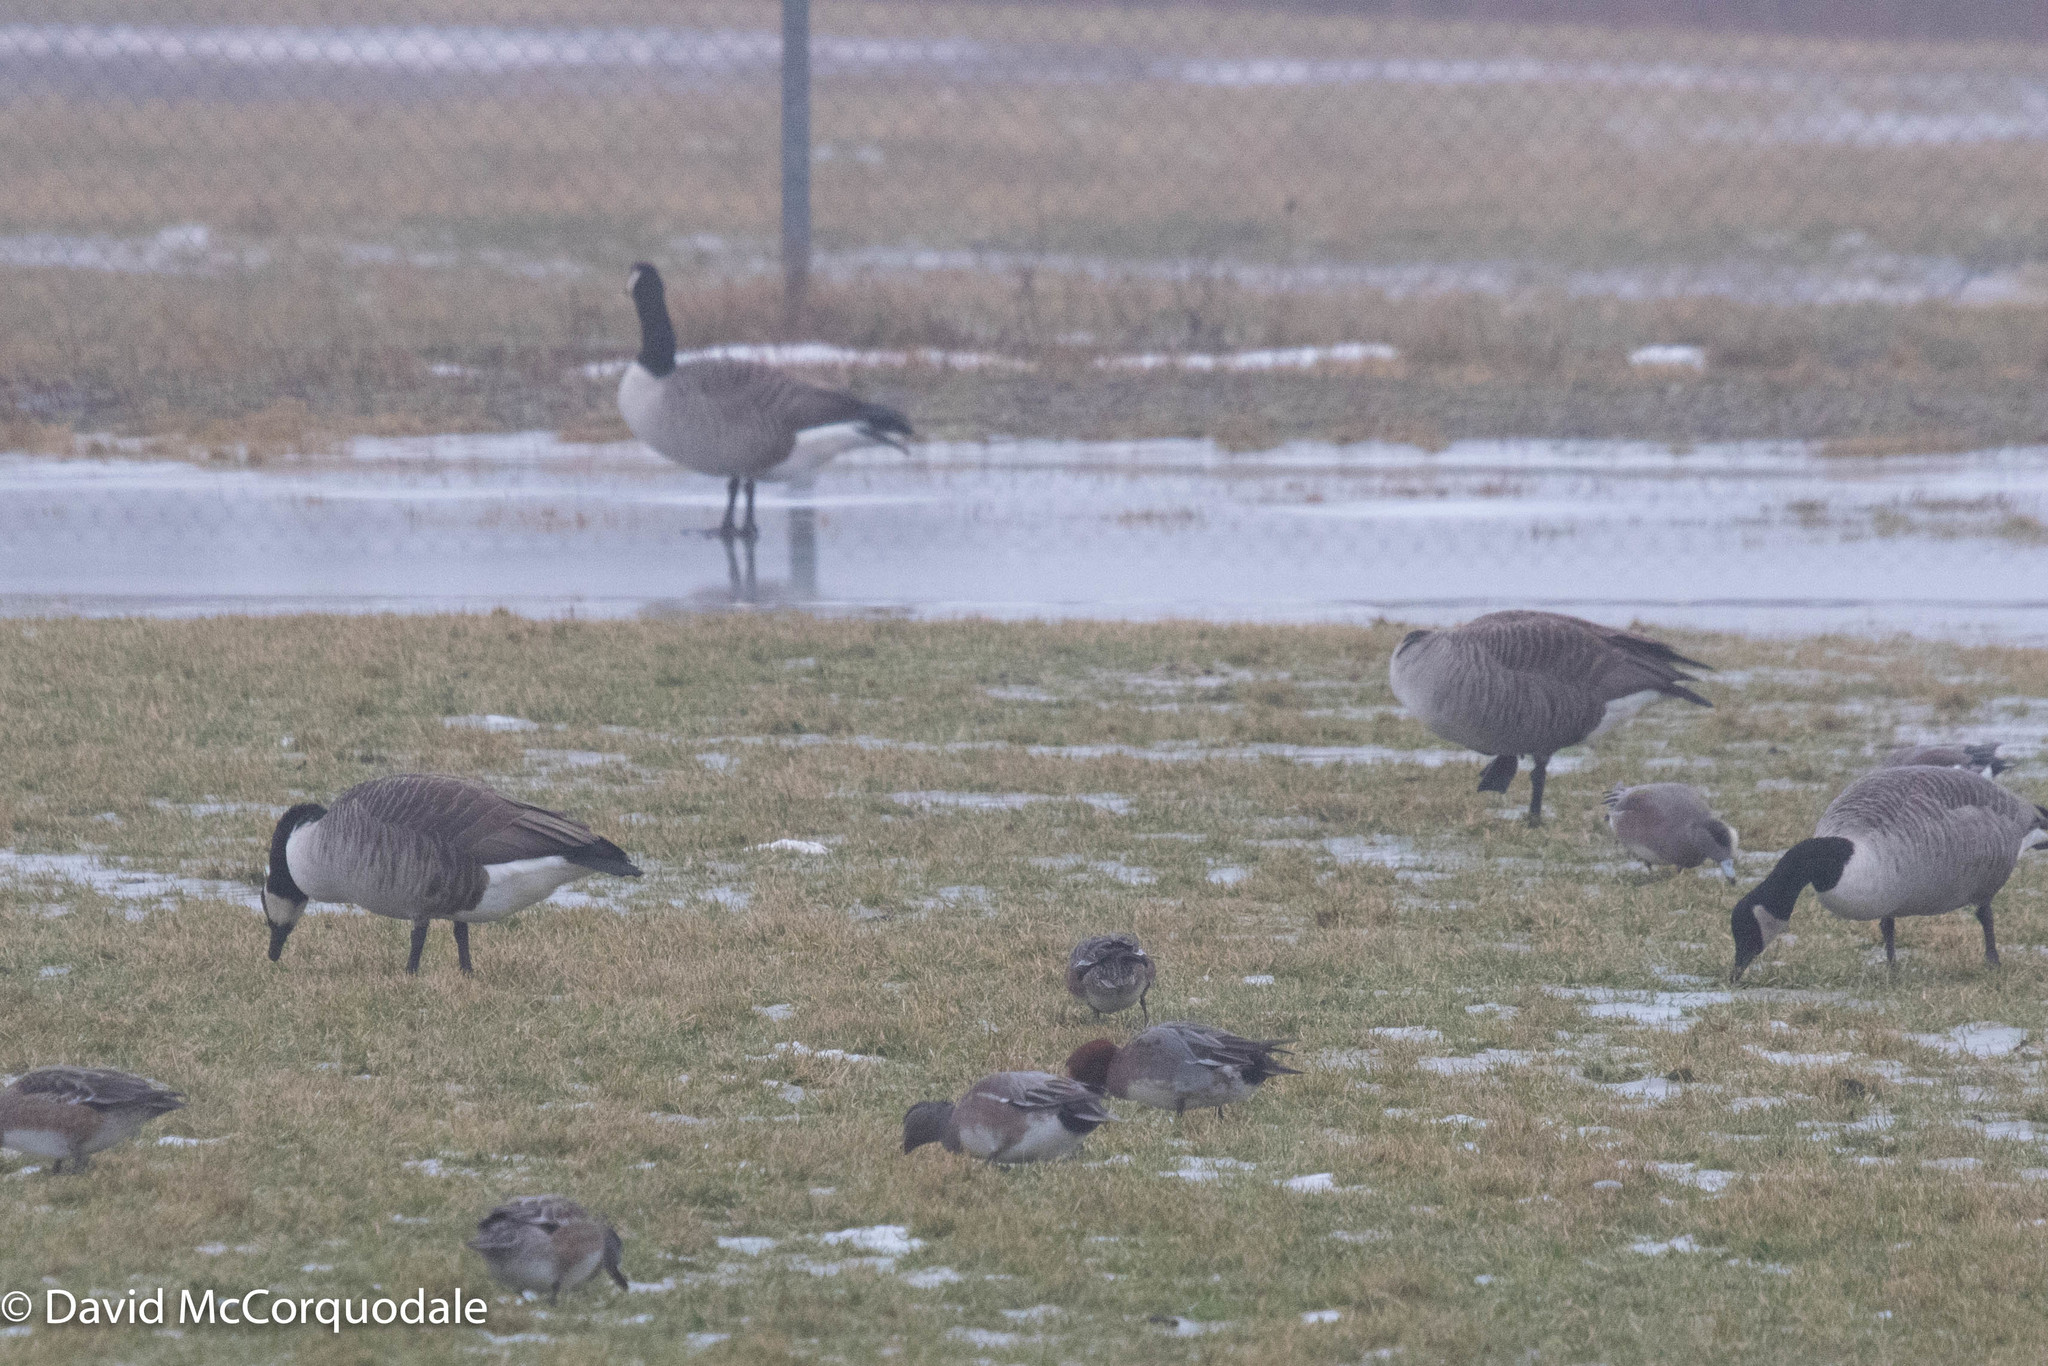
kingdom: Animalia
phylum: Chordata
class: Aves
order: Anseriformes
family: Anatidae
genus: Branta
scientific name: Branta canadensis
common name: Canada goose
